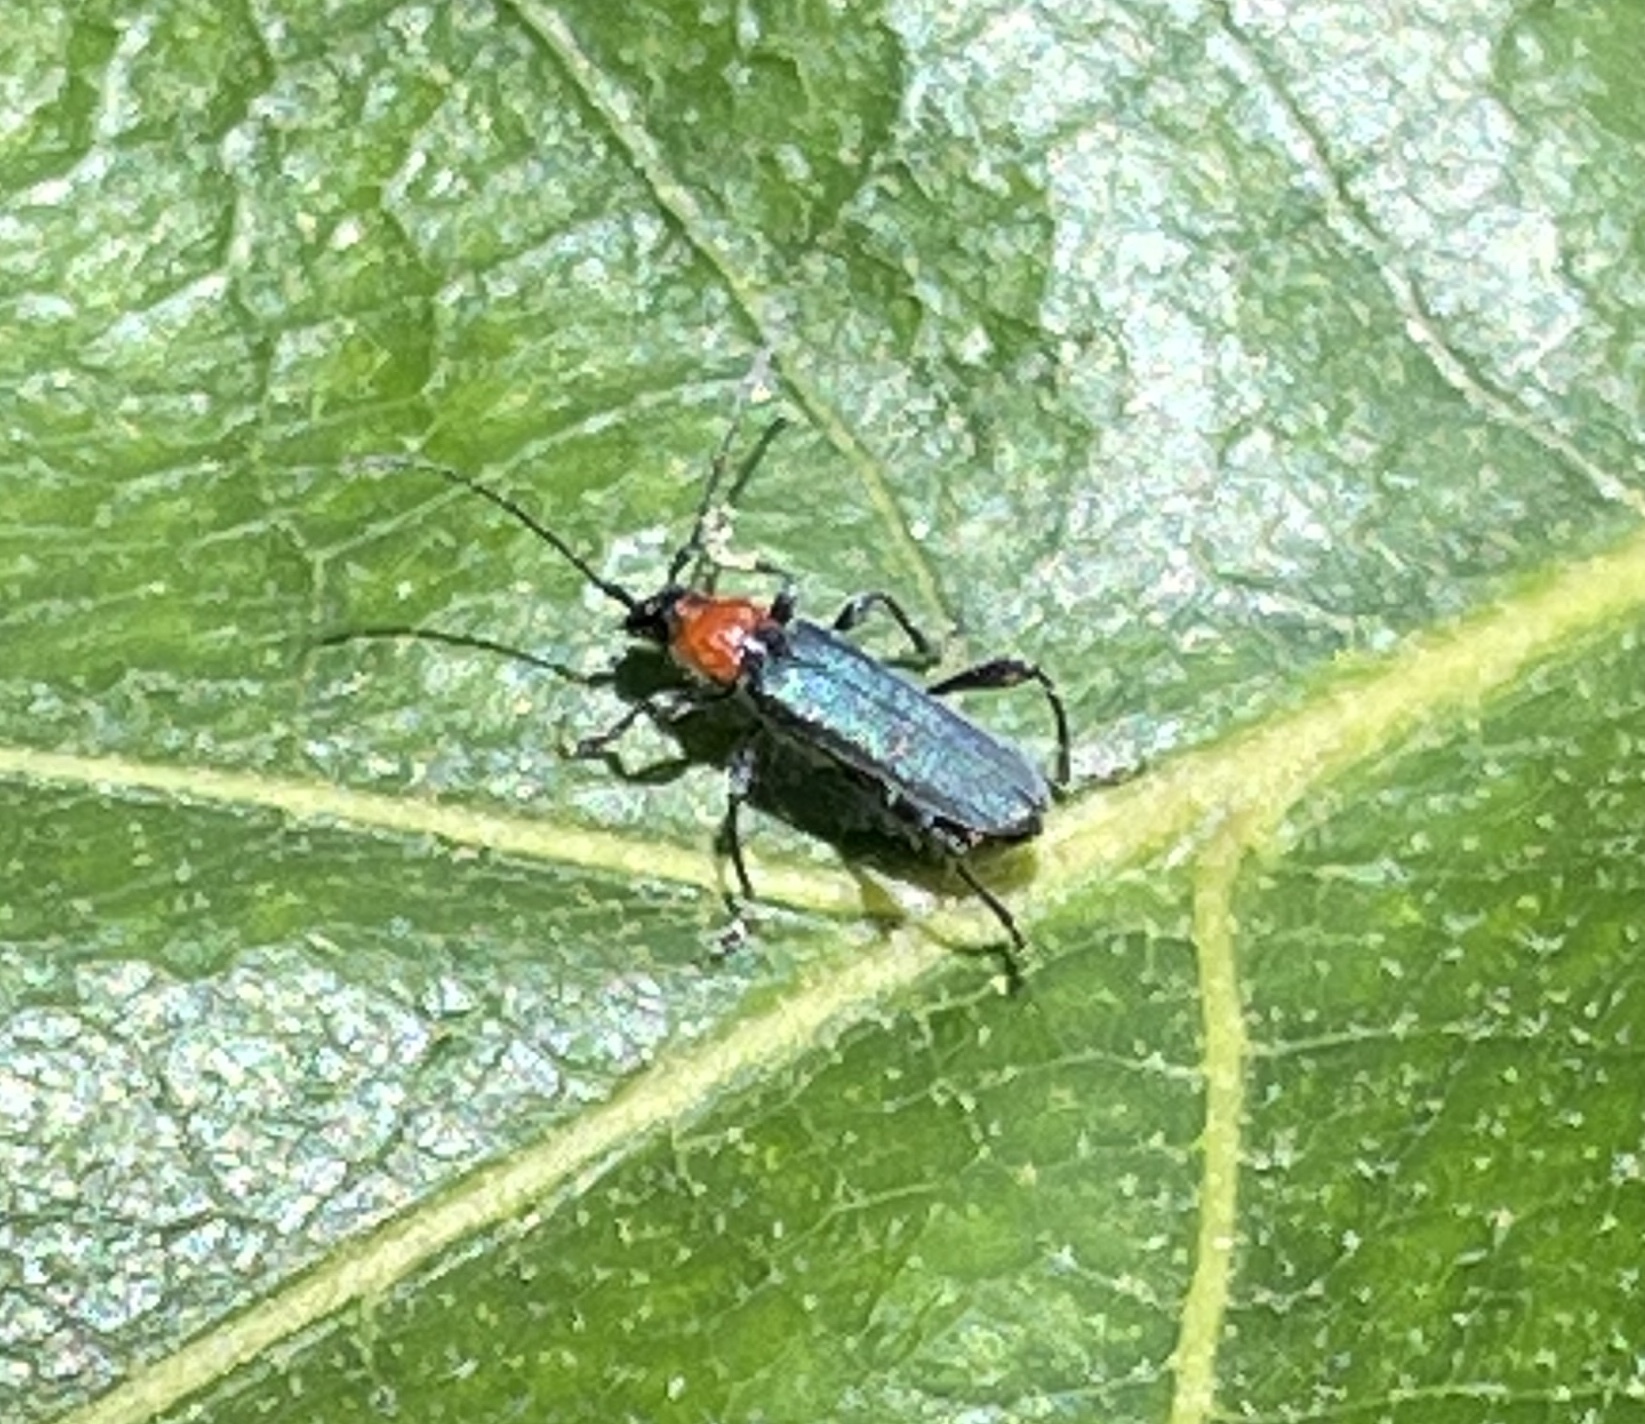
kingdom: Animalia
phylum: Arthropoda
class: Insecta
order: Coleoptera
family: Cerambycidae
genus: Callimus
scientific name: Callimus ruficollis
